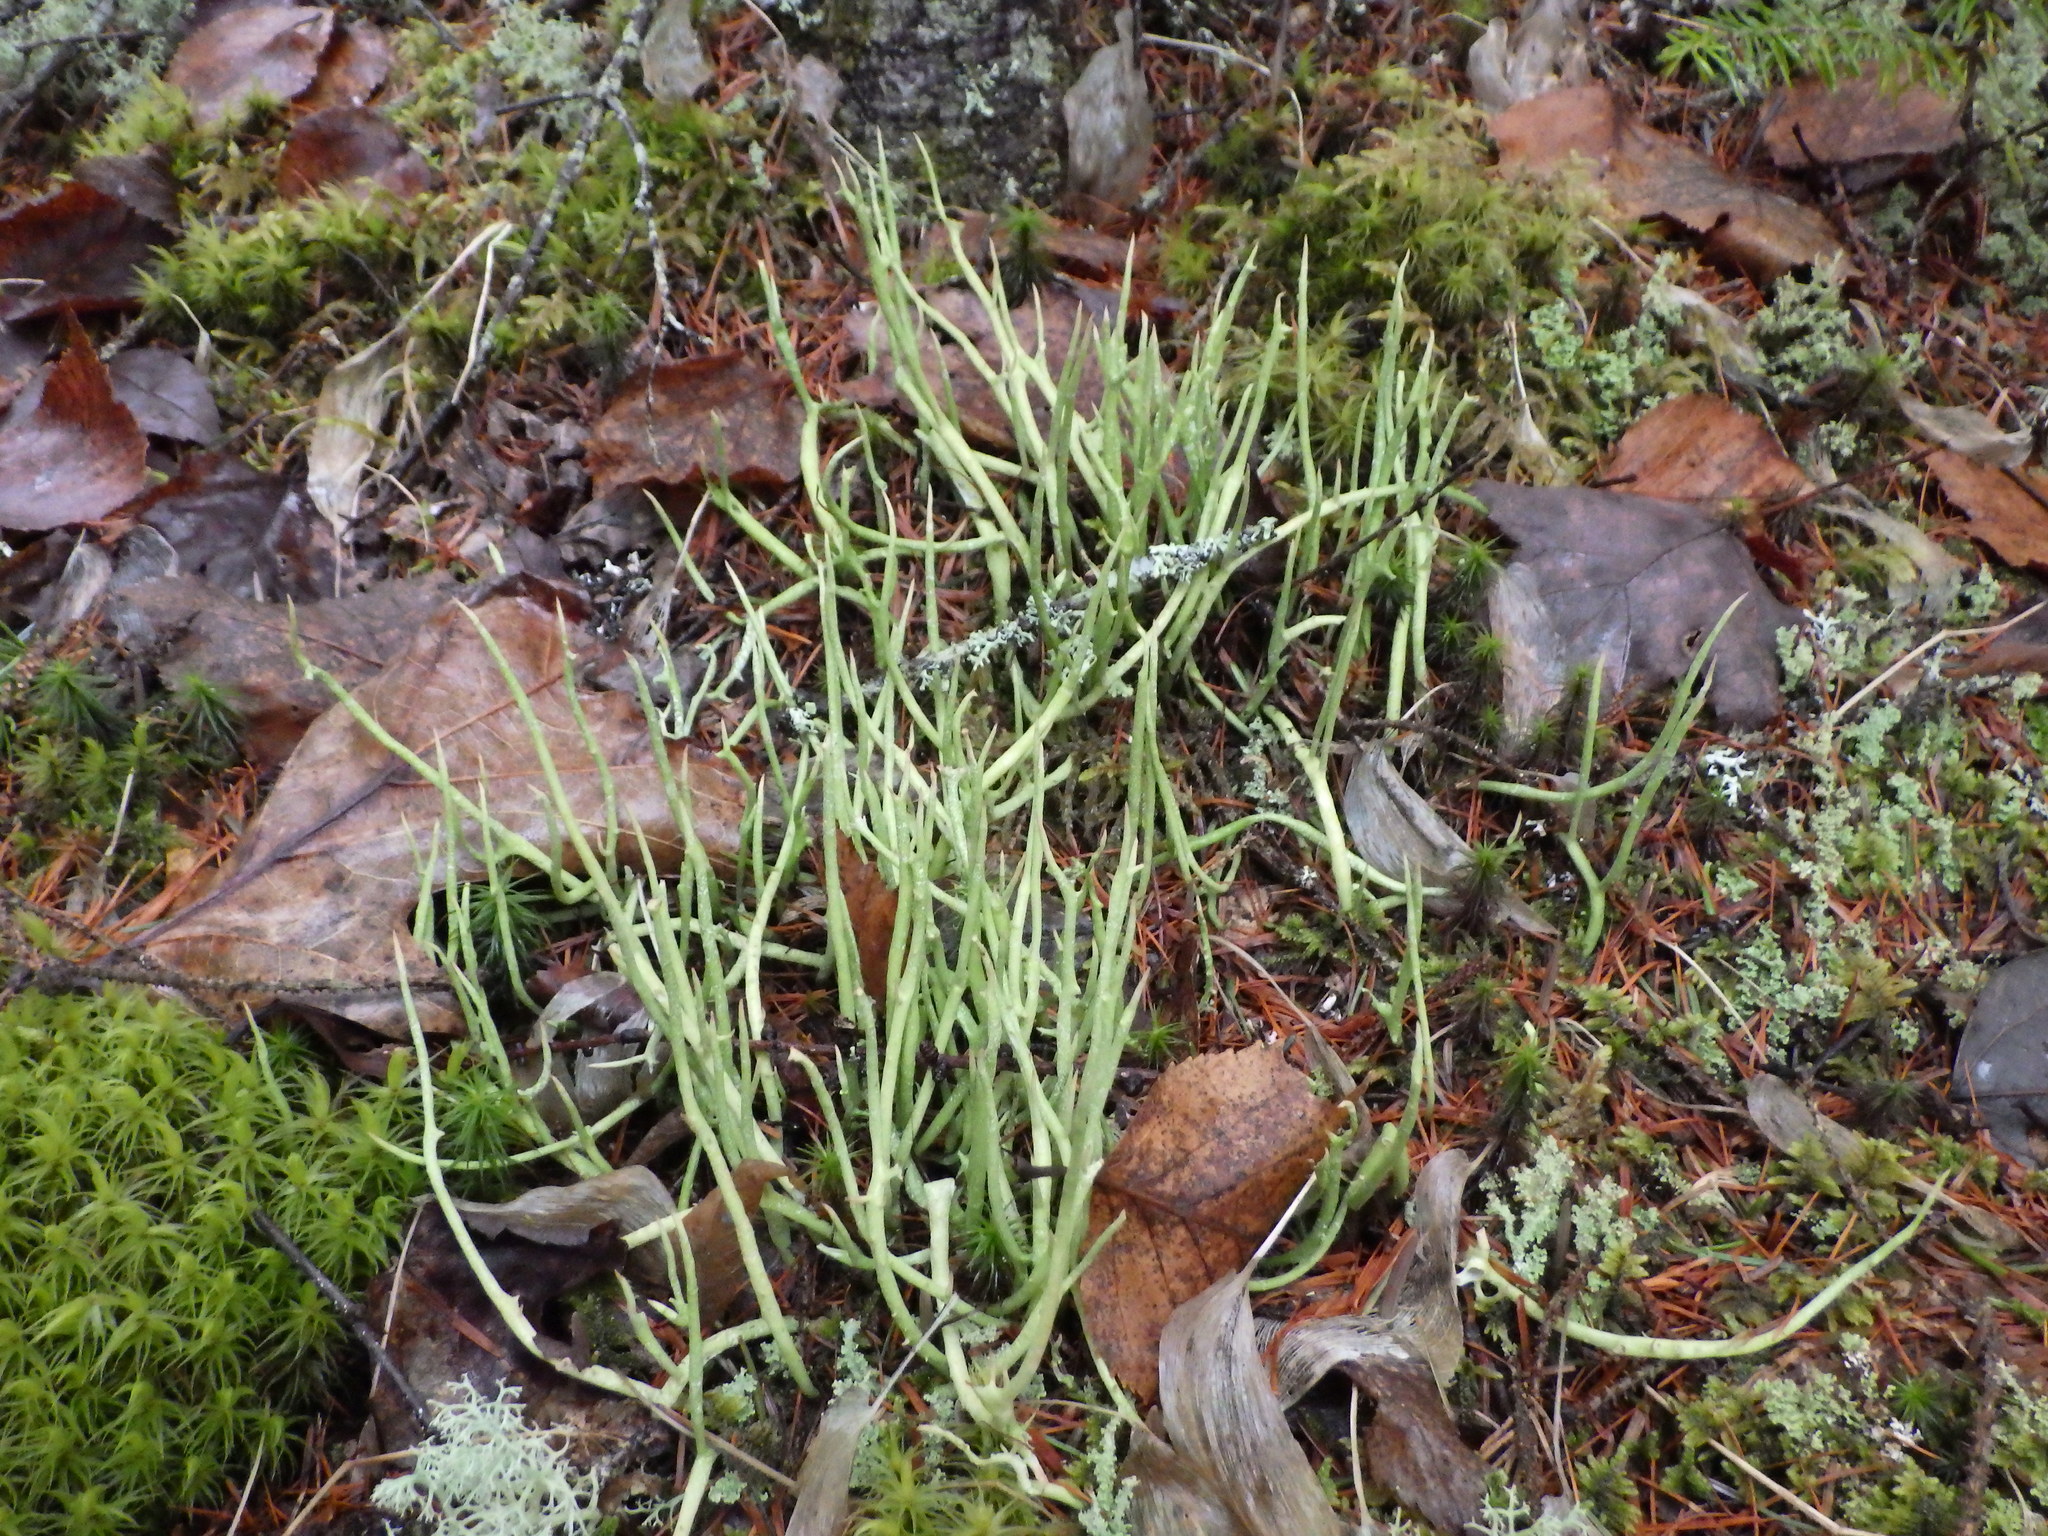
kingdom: Fungi
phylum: Ascomycota
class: Lecanoromycetes
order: Lecanorales
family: Cladoniaceae
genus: Cladonia
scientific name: Cladonia maxima
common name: Giant cladonia lichen
